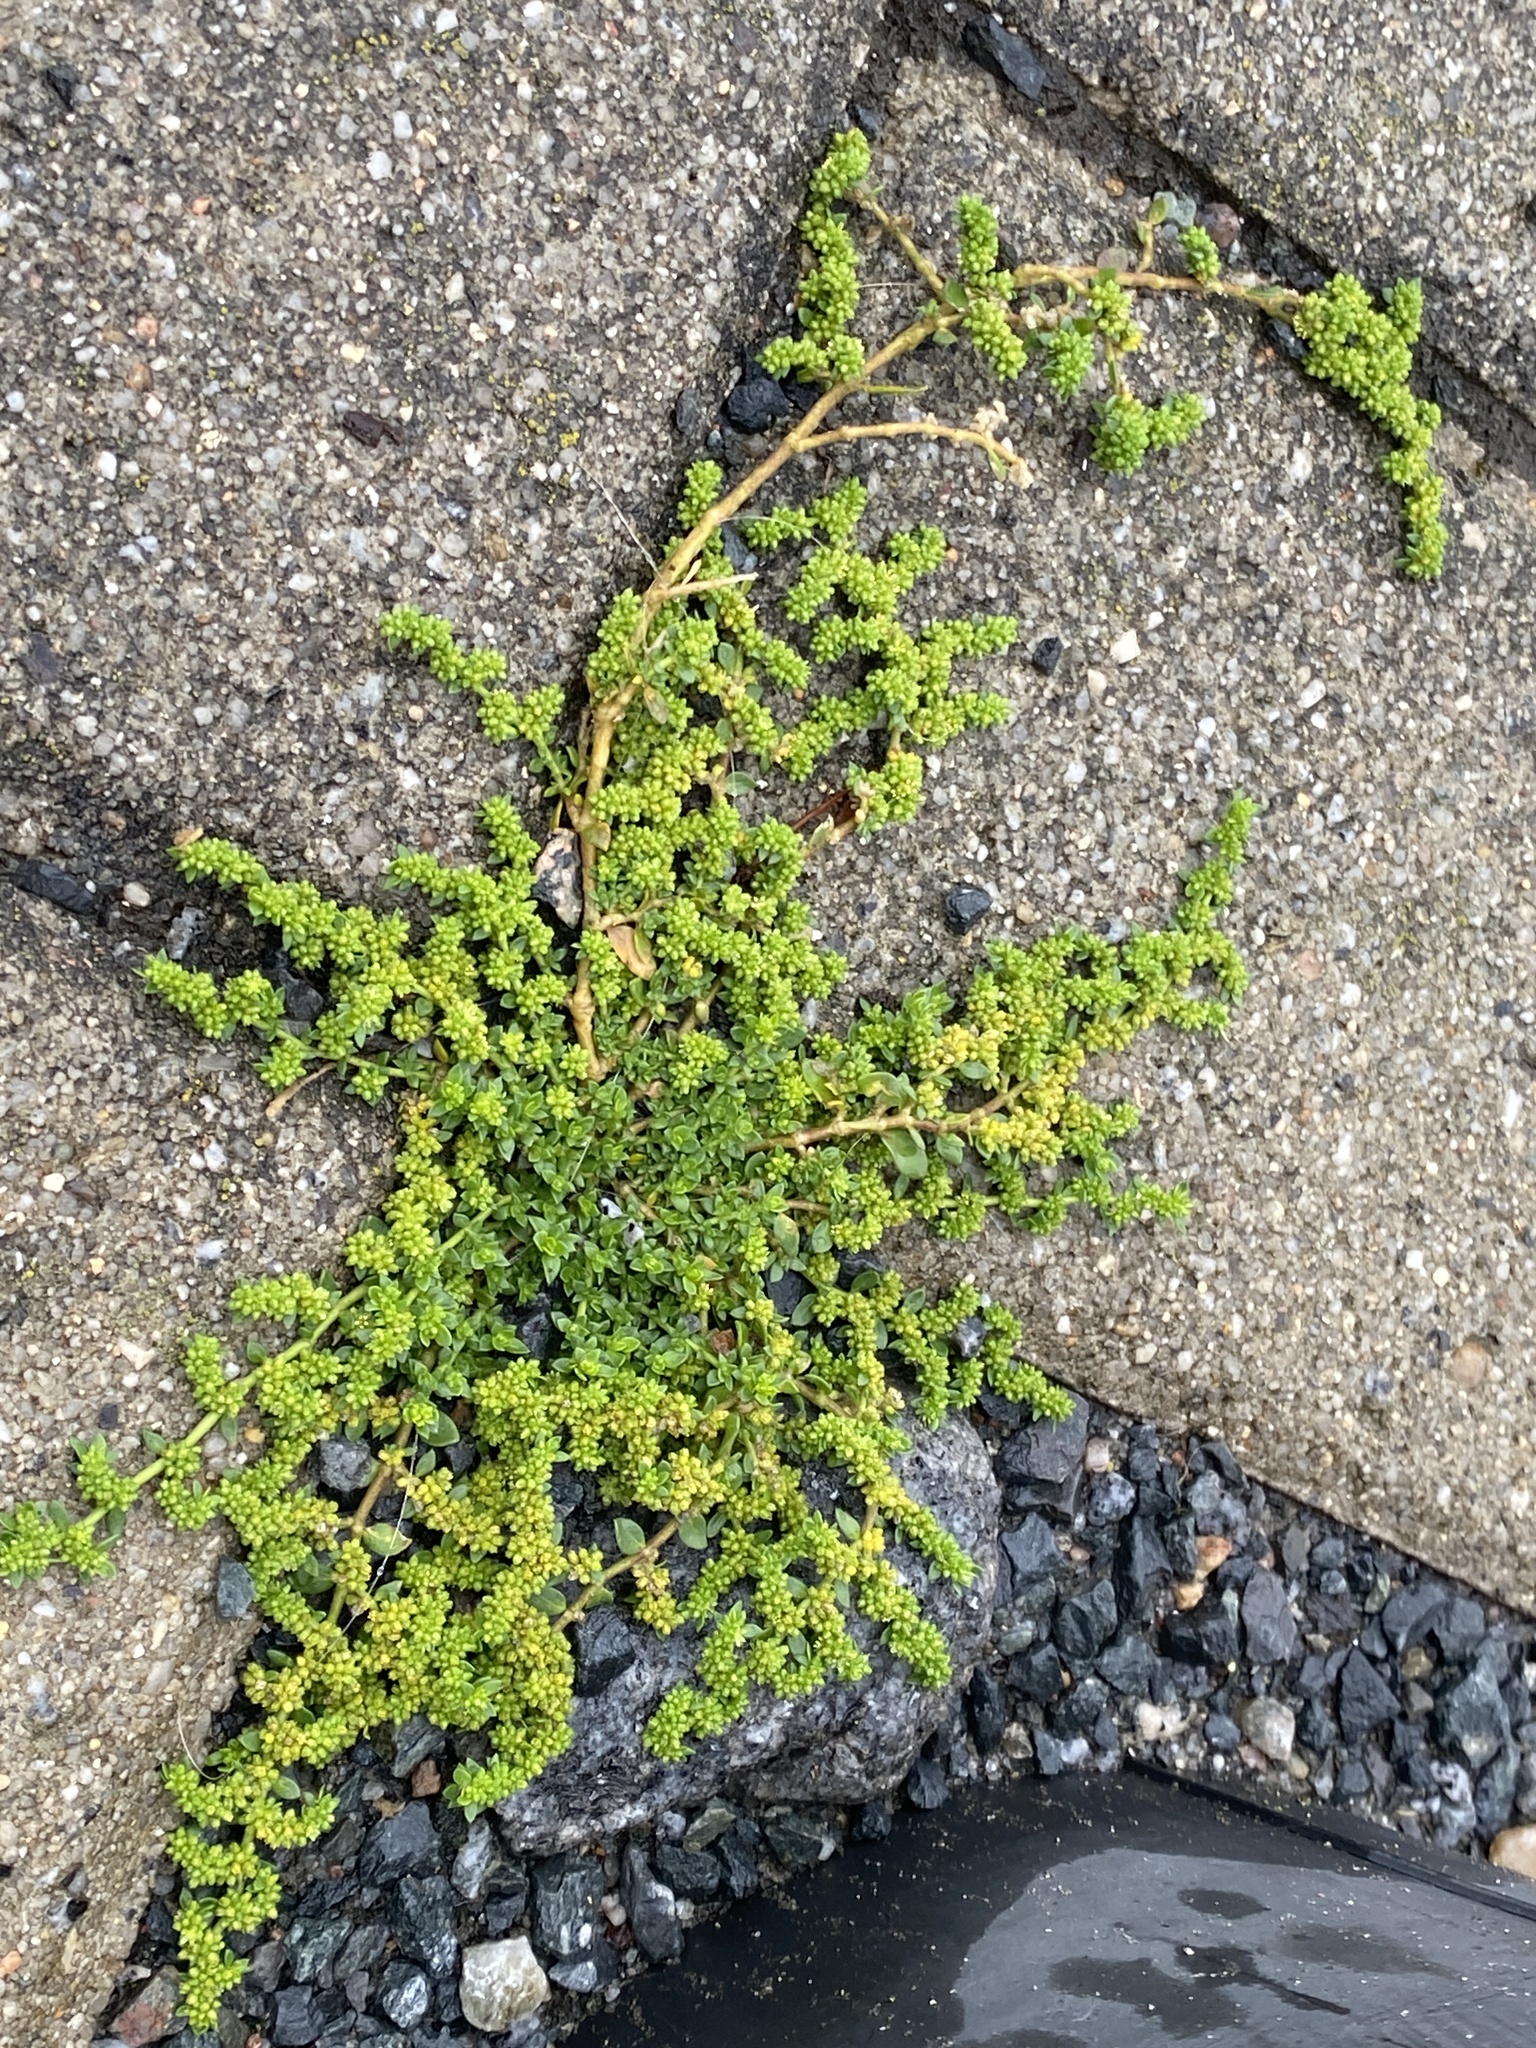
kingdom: Plantae
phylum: Tracheophyta
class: Magnoliopsida
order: Caryophyllales
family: Caryophyllaceae
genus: Herniaria
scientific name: Herniaria glabra
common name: Smooth rupturewort
